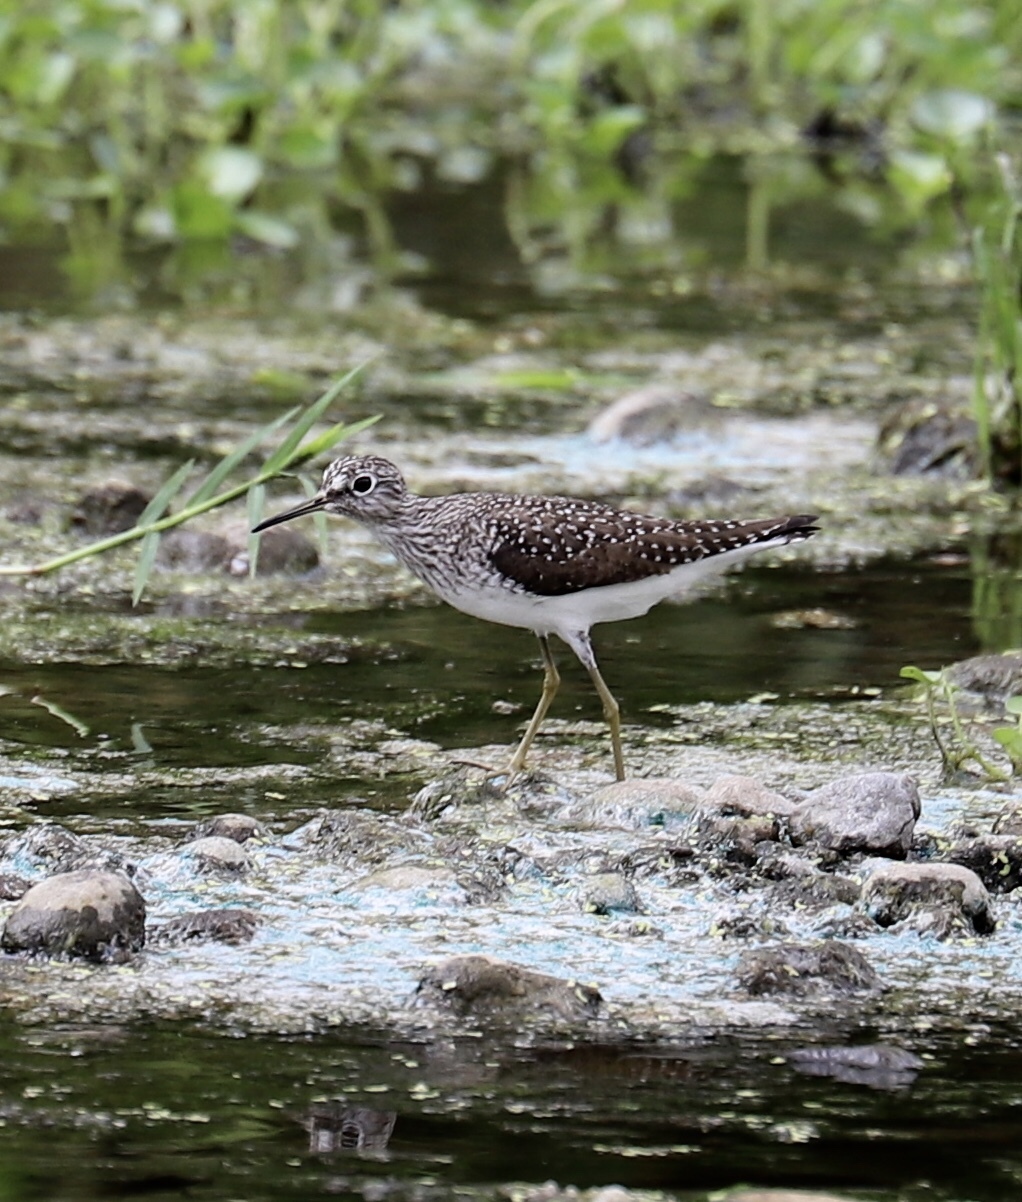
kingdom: Animalia
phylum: Chordata
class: Aves
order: Charadriiformes
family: Scolopacidae
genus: Tringa
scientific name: Tringa solitaria
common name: Solitary sandpiper
